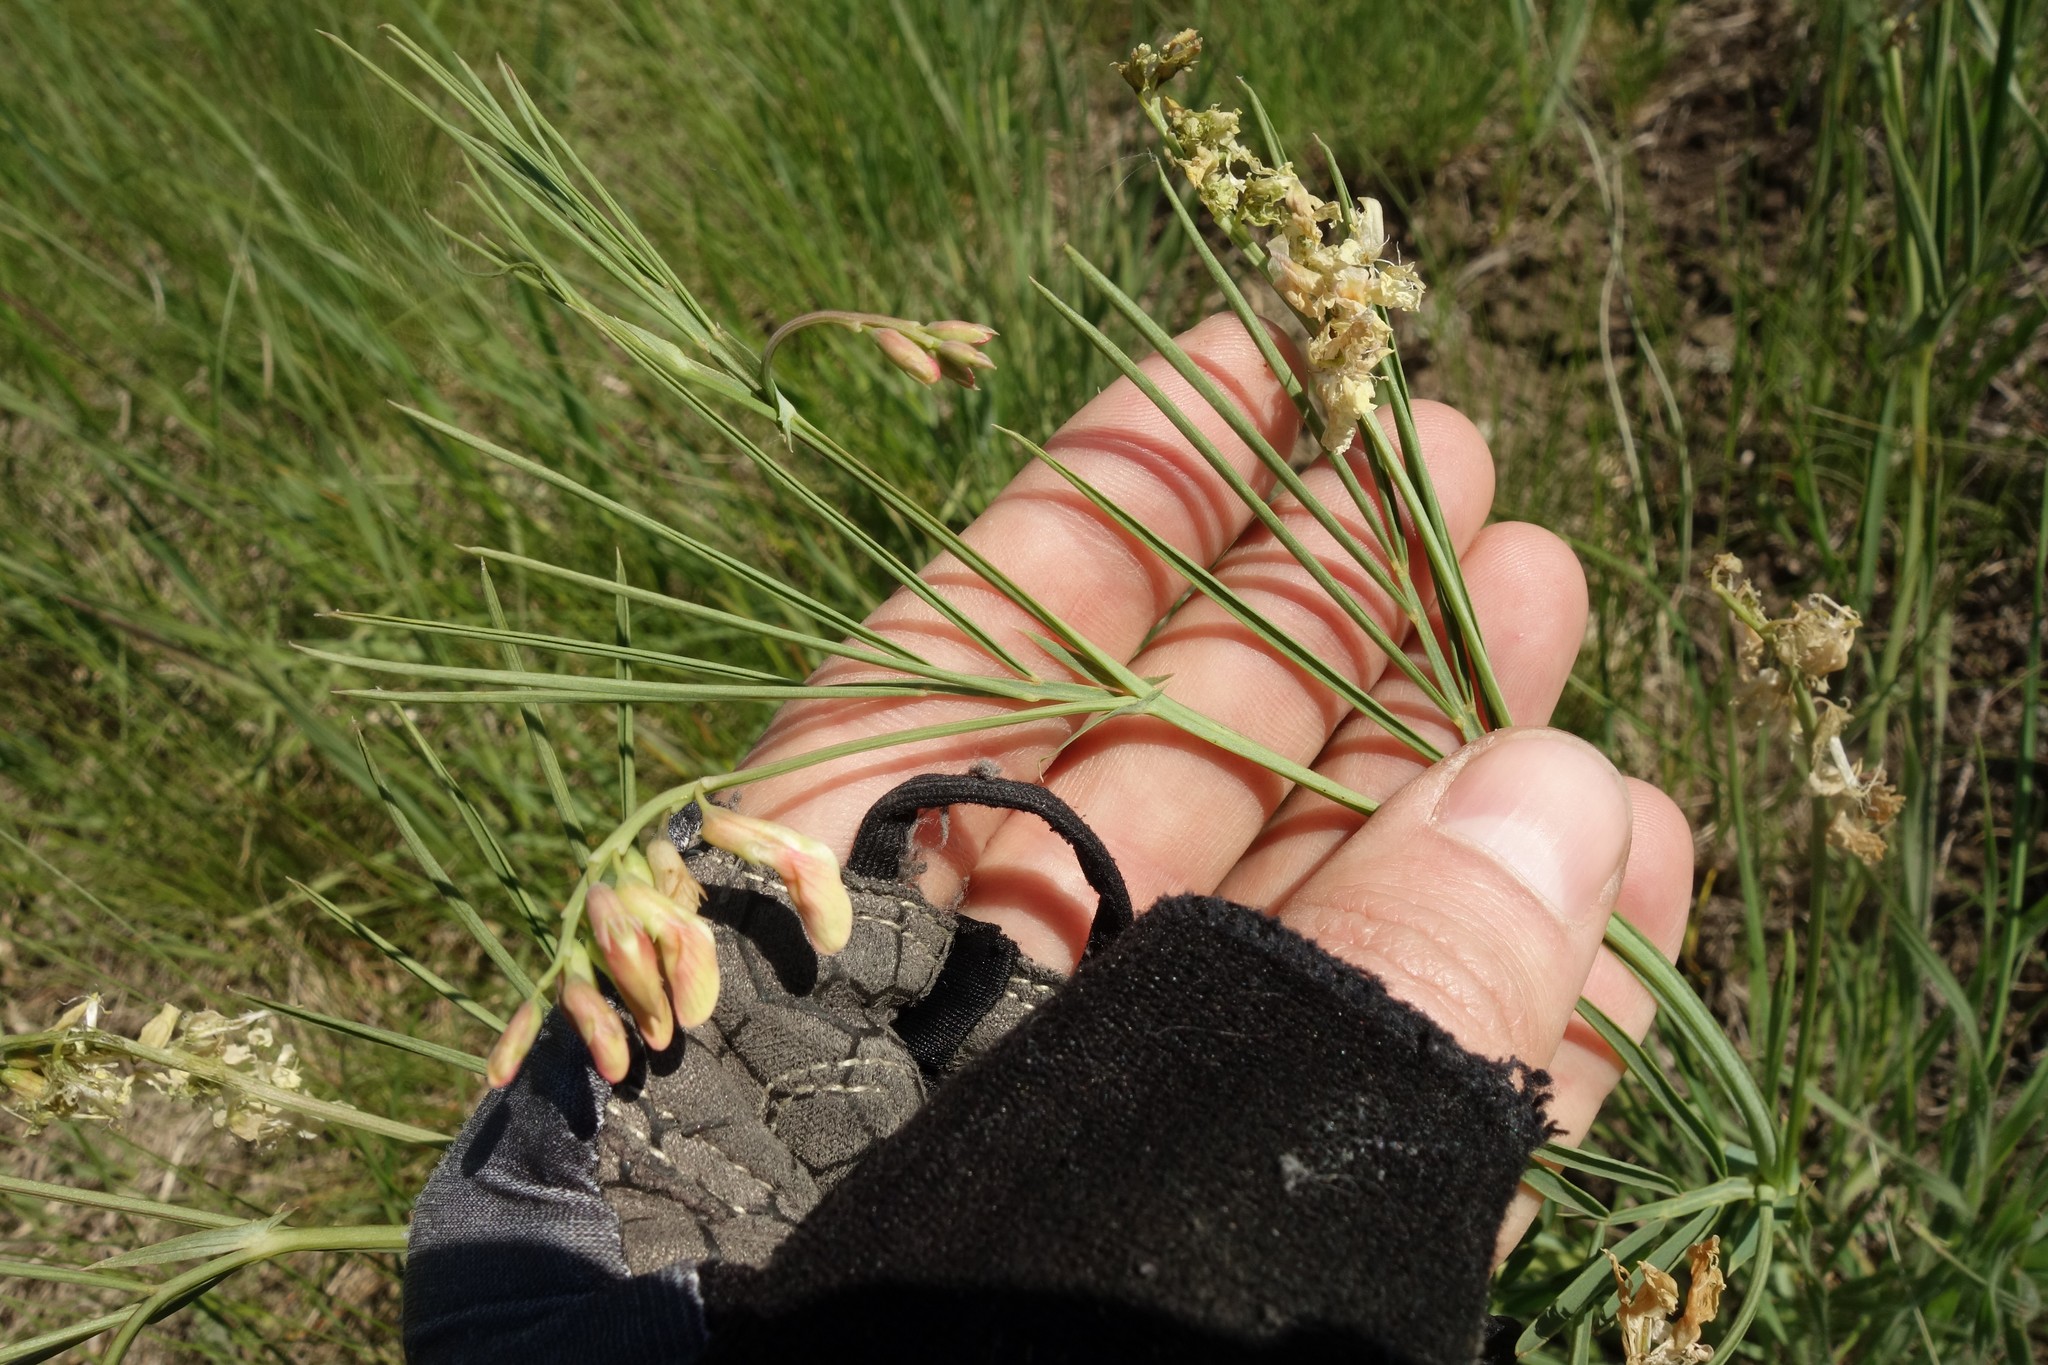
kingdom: Plantae
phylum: Tracheophyta
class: Magnoliopsida
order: Fabales
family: Fabaceae
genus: Lathyrus
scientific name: Lathyrus pannonicus
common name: Pea
